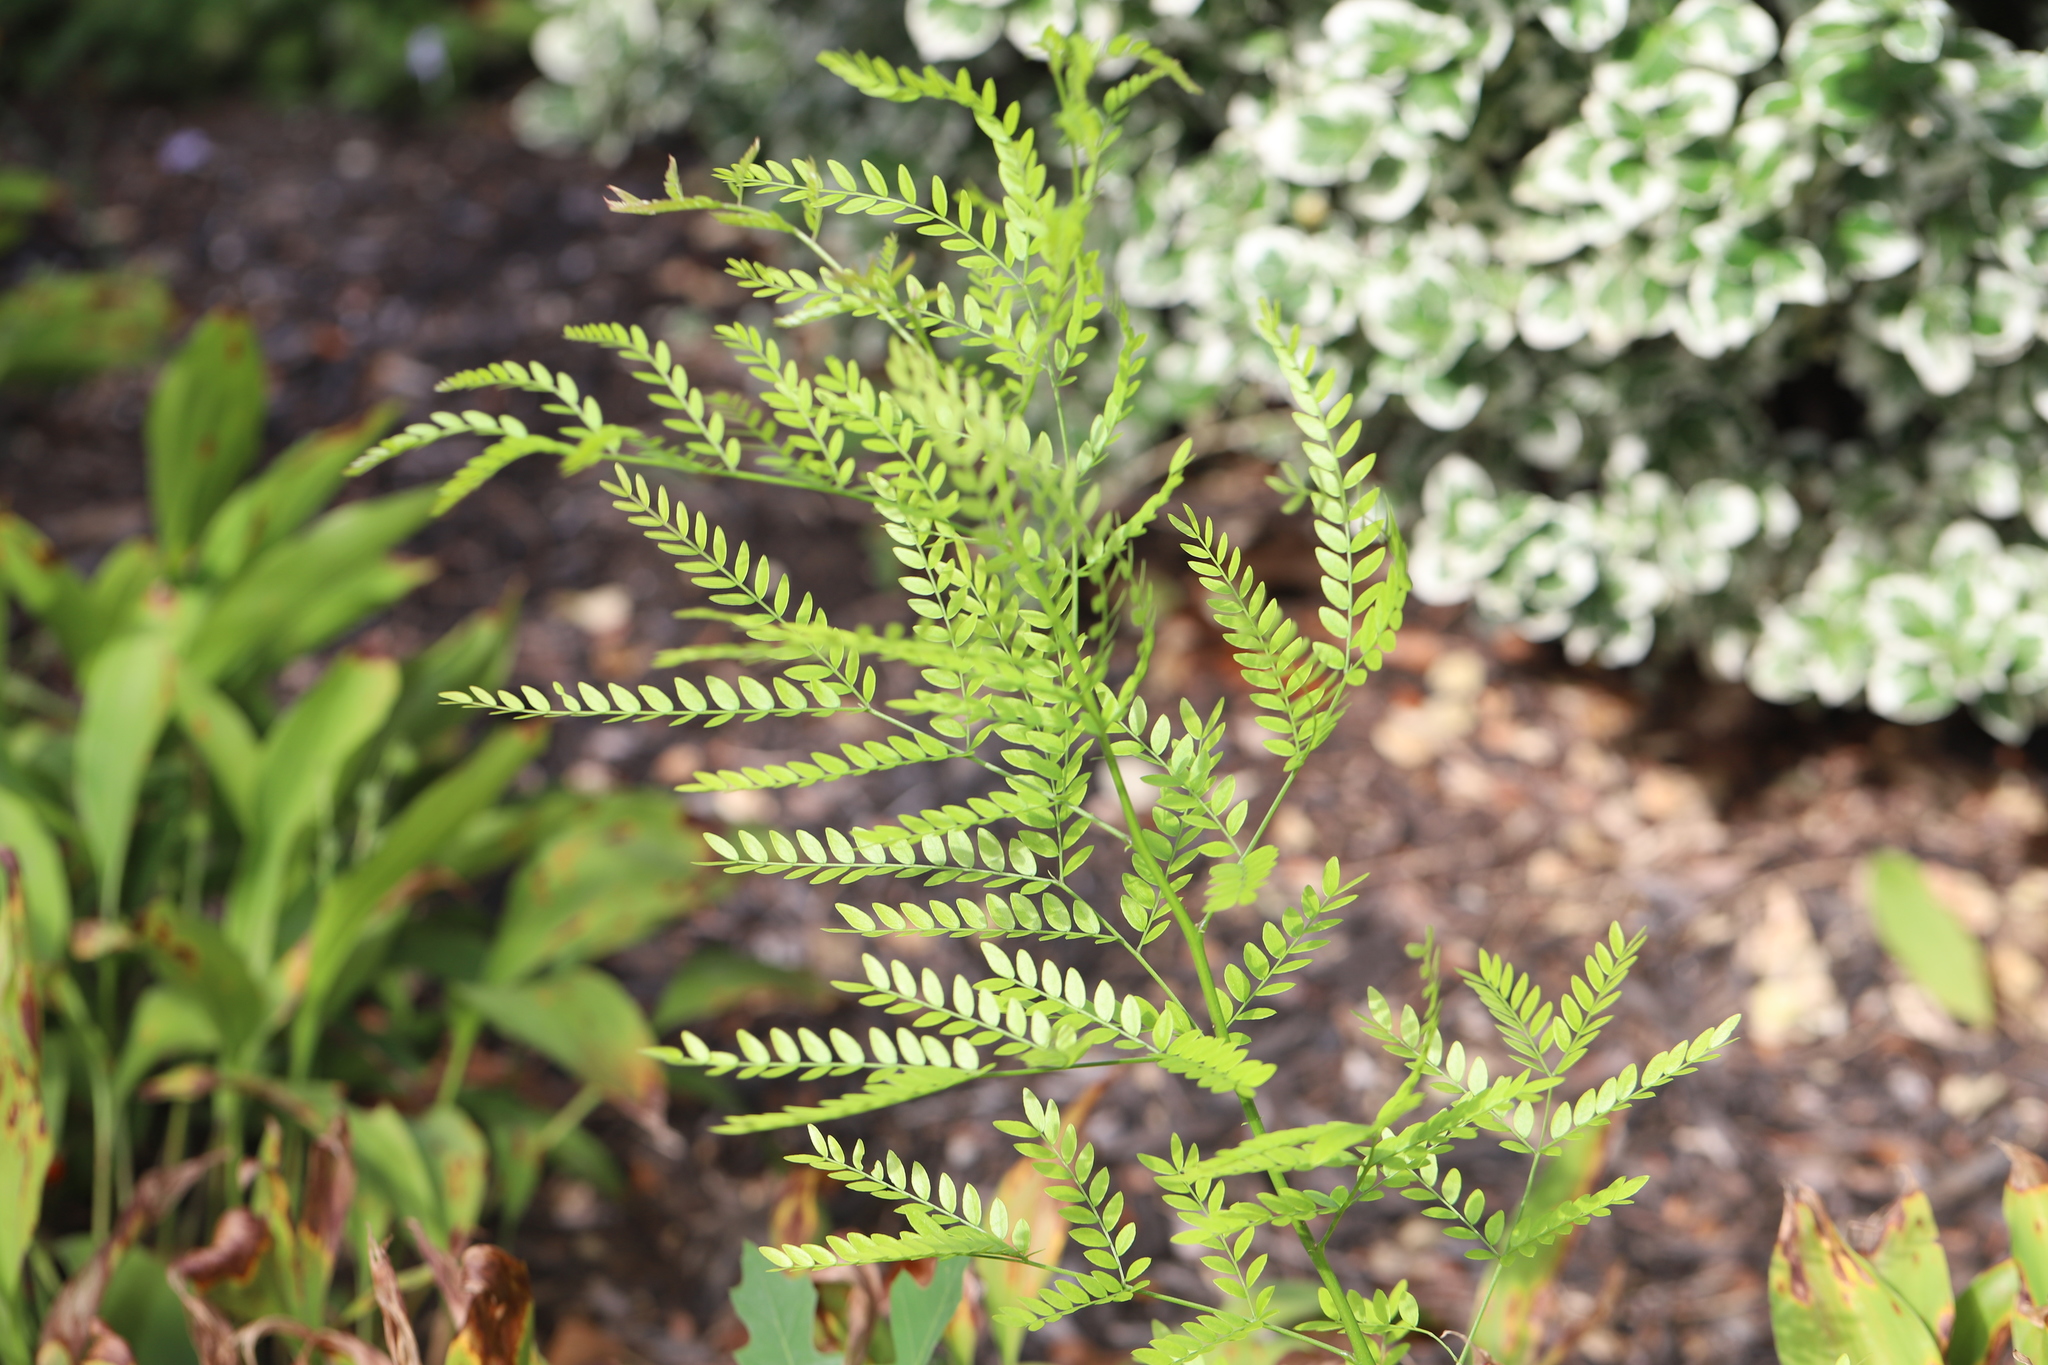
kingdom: Plantae
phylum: Tracheophyta
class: Magnoliopsida
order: Fabales
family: Fabaceae
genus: Gleditsia
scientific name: Gleditsia triacanthos
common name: Common honeylocust
